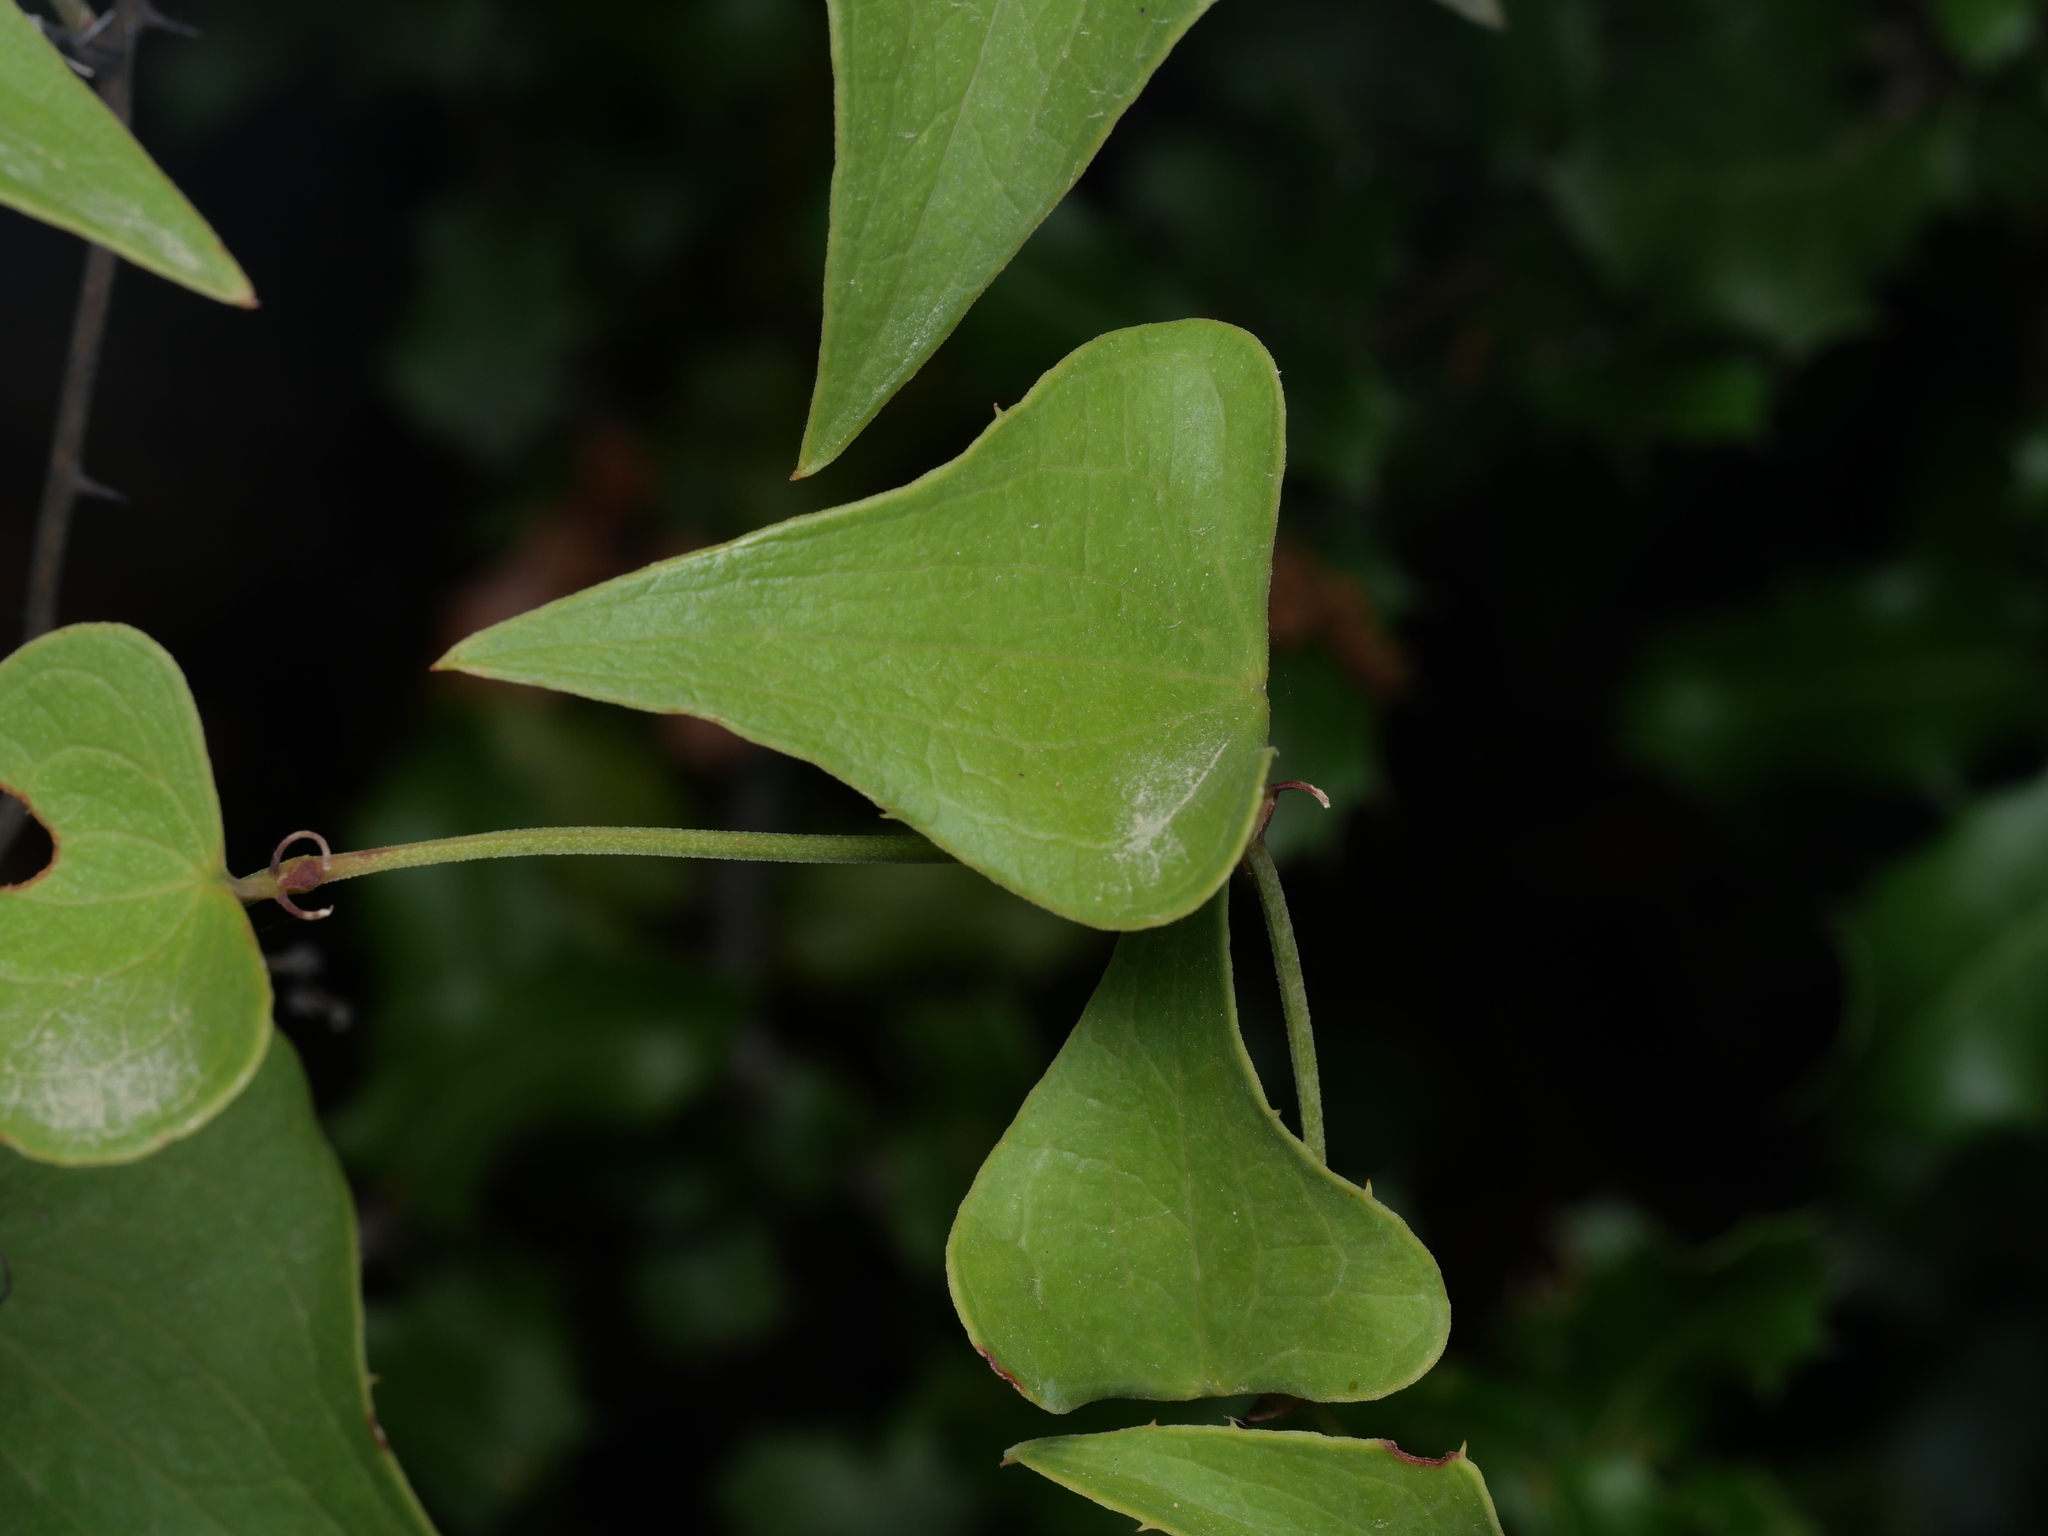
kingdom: Plantae
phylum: Tracheophyta
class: Liliopsida
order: Liliales
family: Smilacaceae
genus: Smilax
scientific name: Smilax aspera
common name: Common smilax
